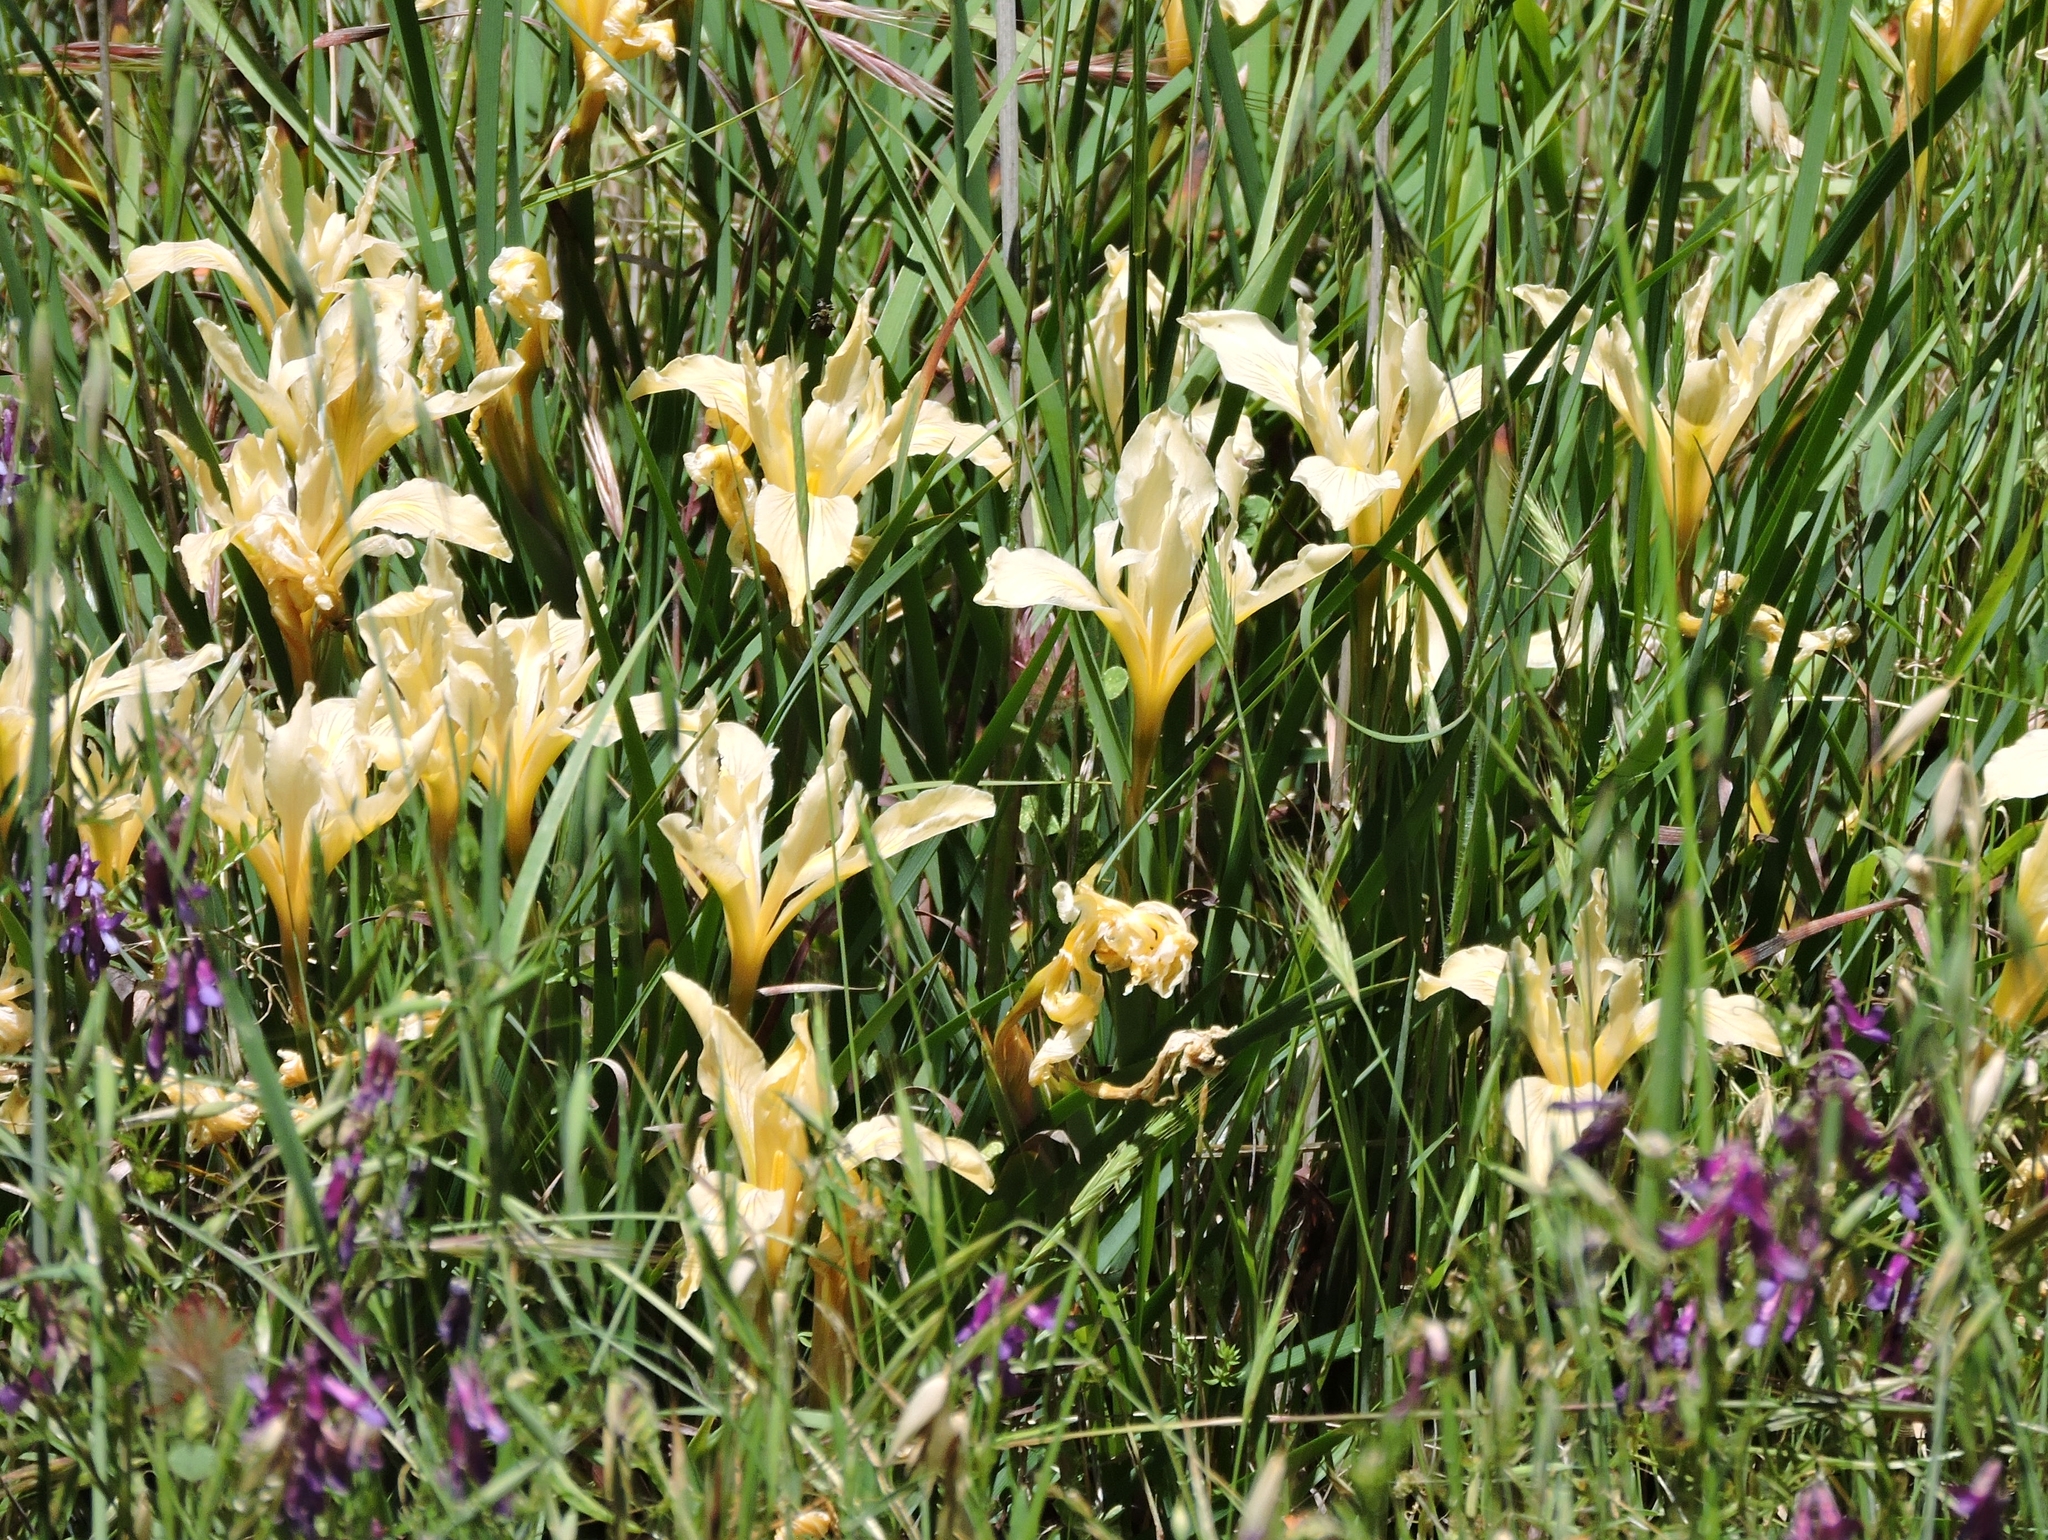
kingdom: Plantae
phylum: Tracheophyta
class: Liliopsida
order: Asparagales
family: Iridaceae
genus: Iris
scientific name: Iris fernaldii
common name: Fernald's iris
